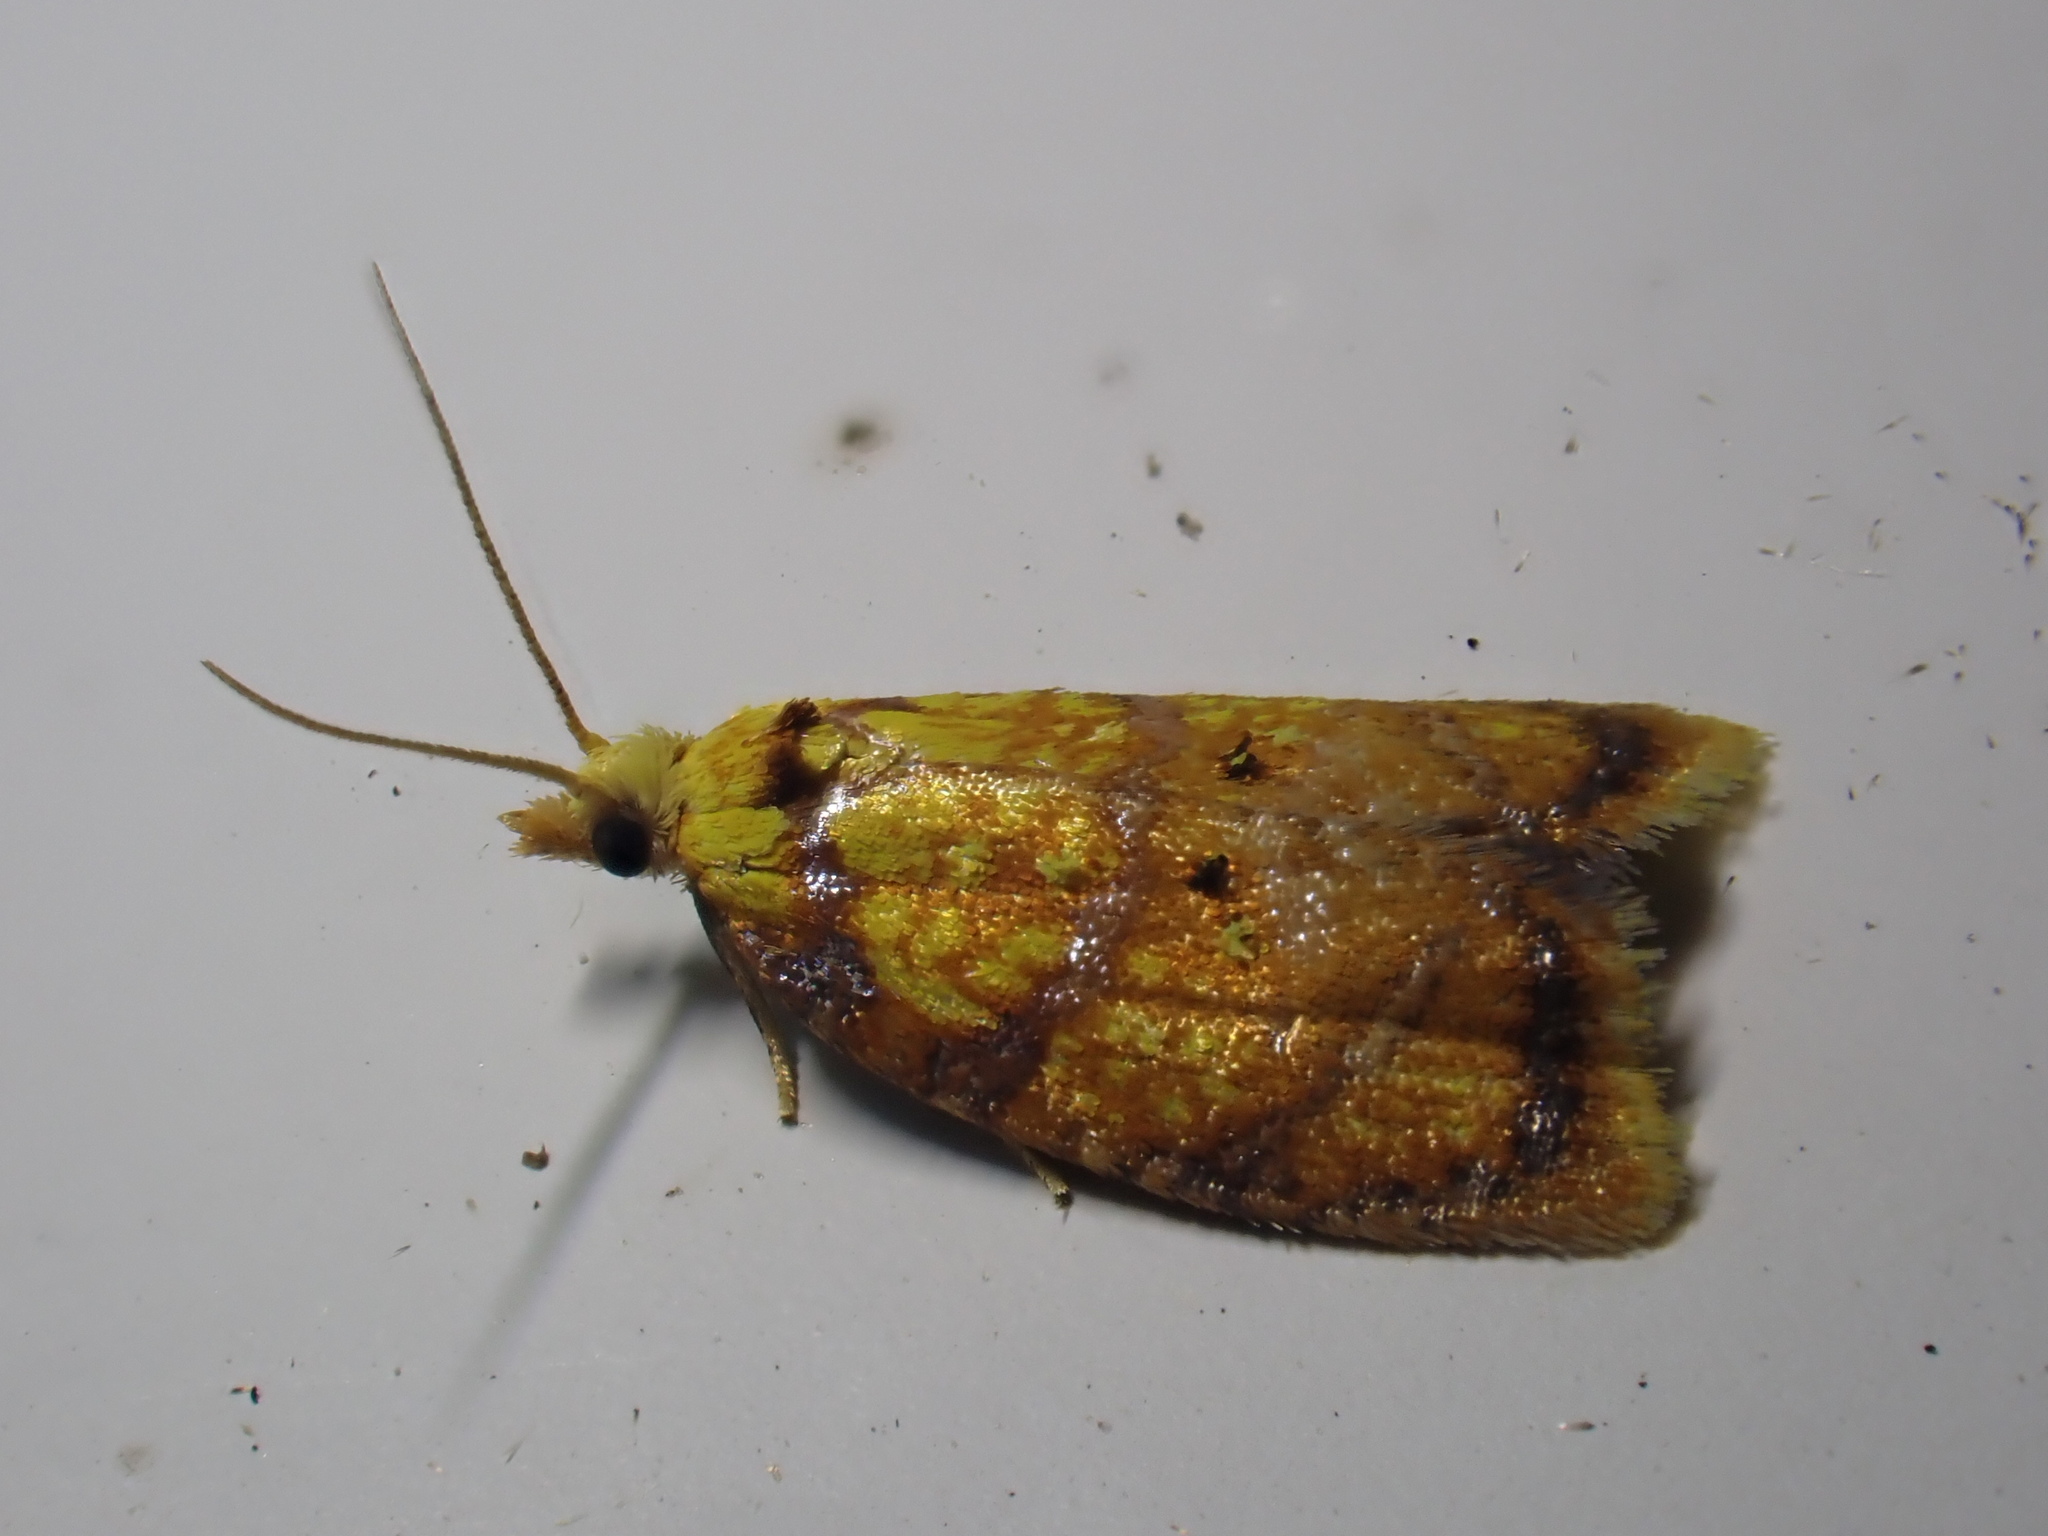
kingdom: Animalia
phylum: Arthropoda
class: Insecta
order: Lepidoptera
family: Tortricidae
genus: Acleris
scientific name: Acleris bergmanniana
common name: Yellow rose button
